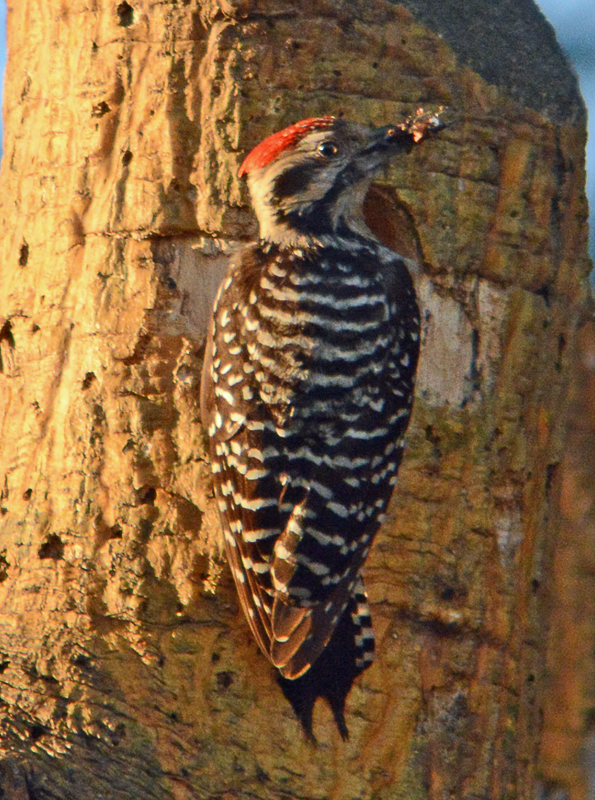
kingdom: Animalia
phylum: Chordata
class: Aves
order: Piciformes
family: Picidae
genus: Dryobates
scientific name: Dryobates scalaris
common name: Ladder-backed woodpecker
